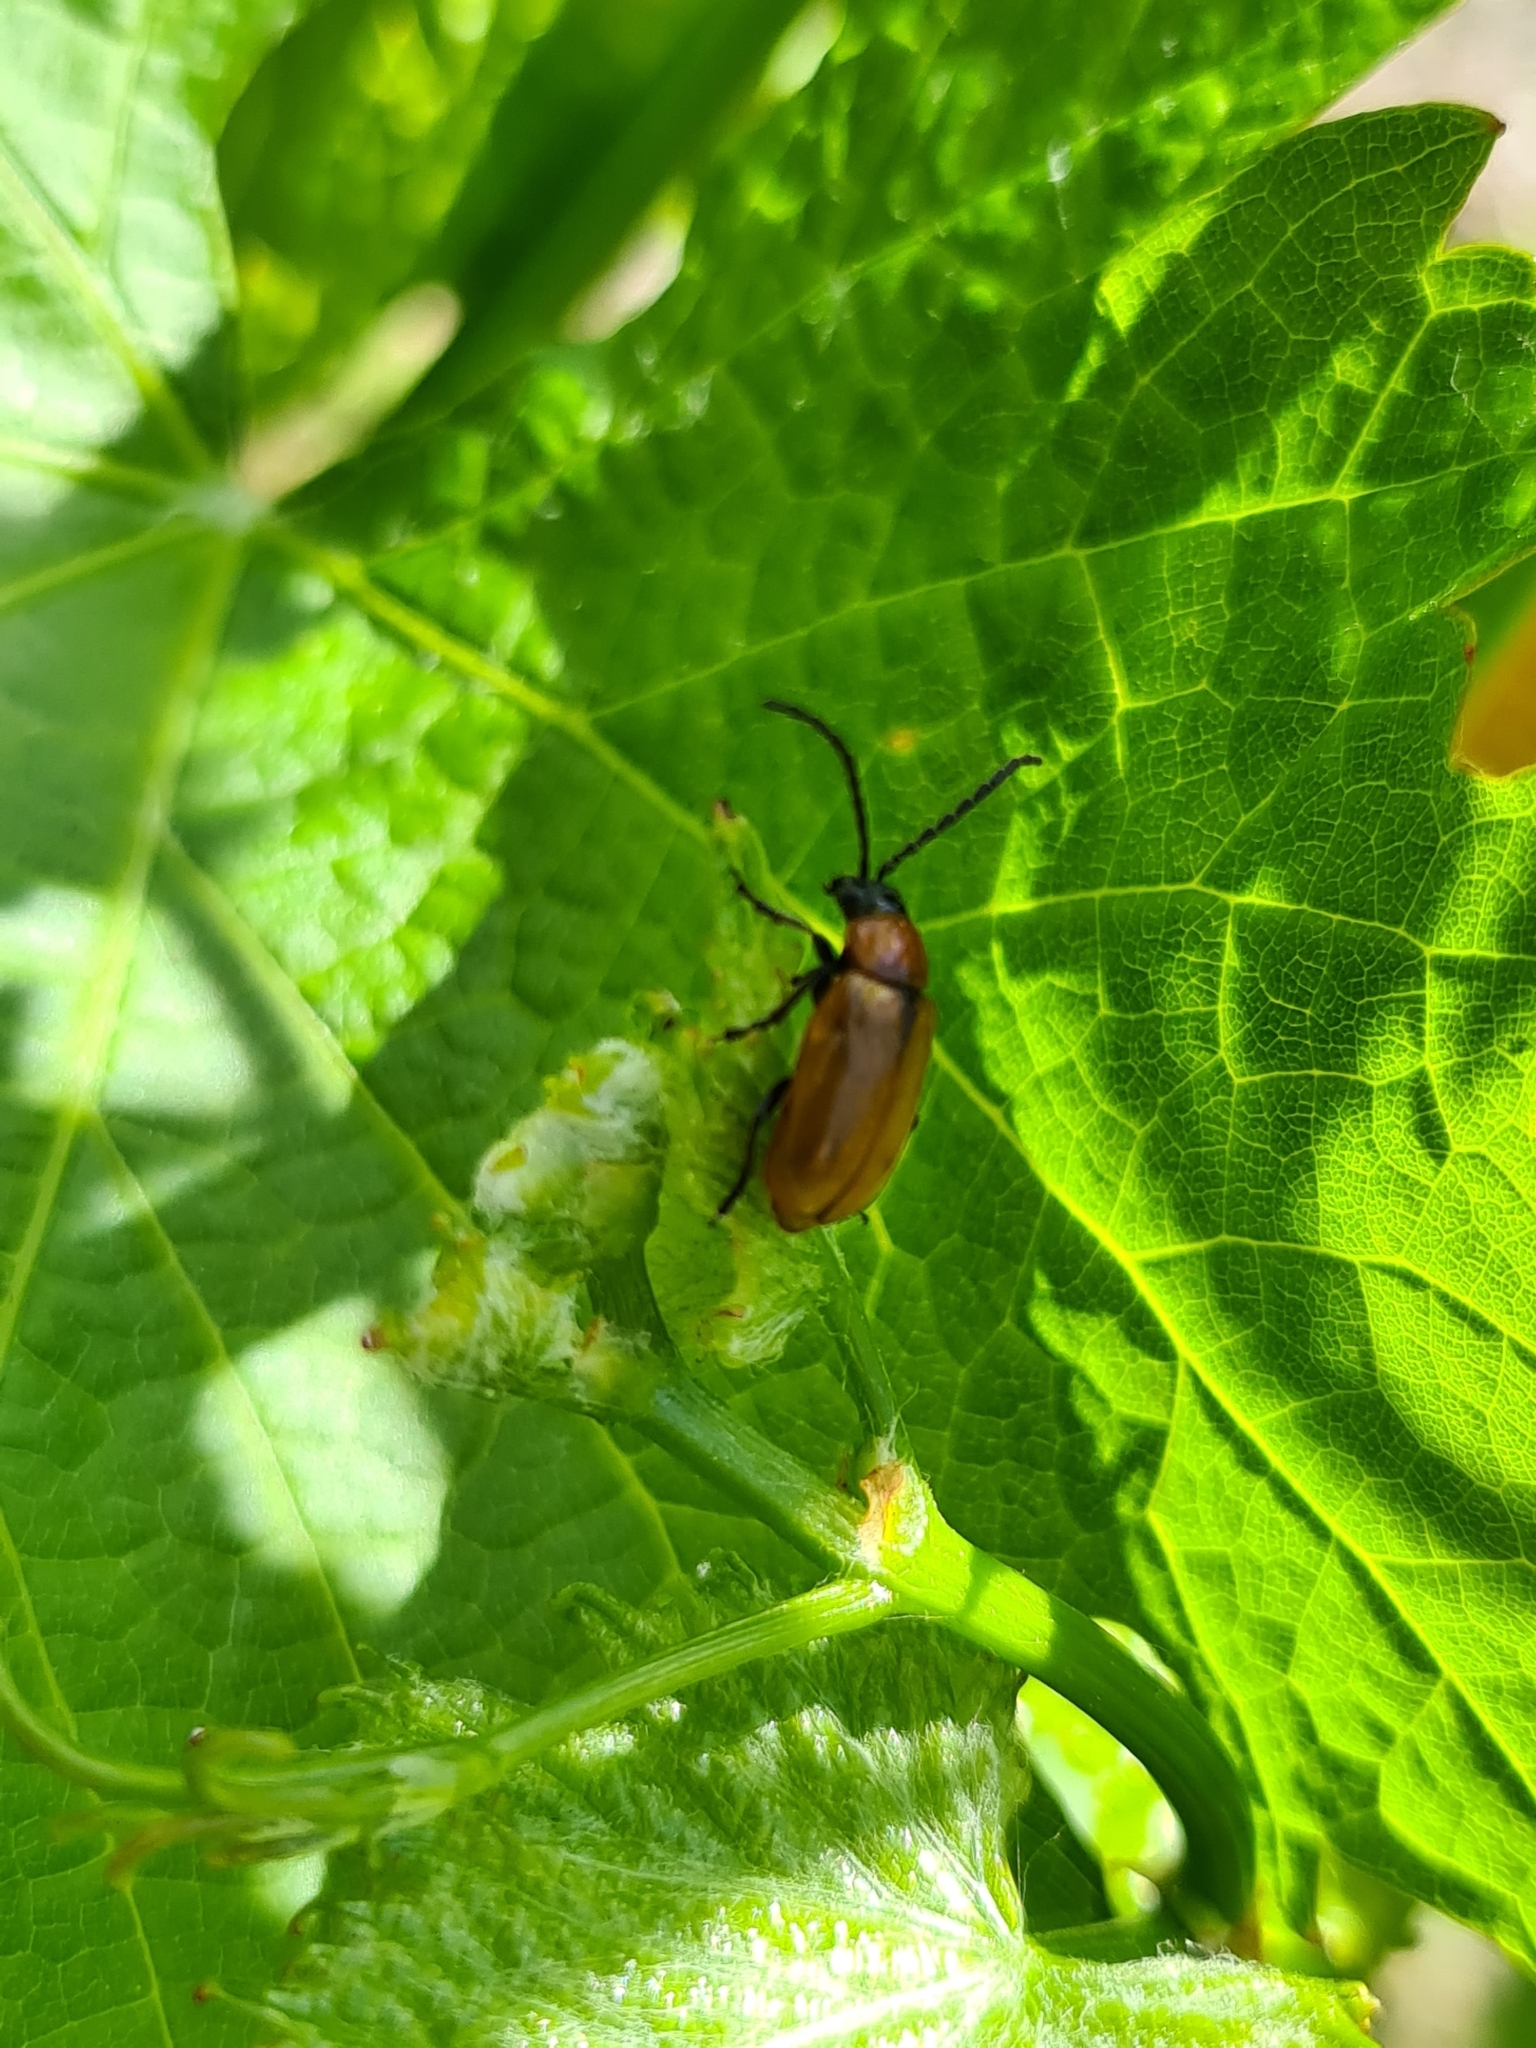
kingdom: Animalia
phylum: Arthropoda
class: Insecta
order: Coleoptera
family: Chrysomelidae
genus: Exosoma
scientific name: Exosoma lusitanicum
